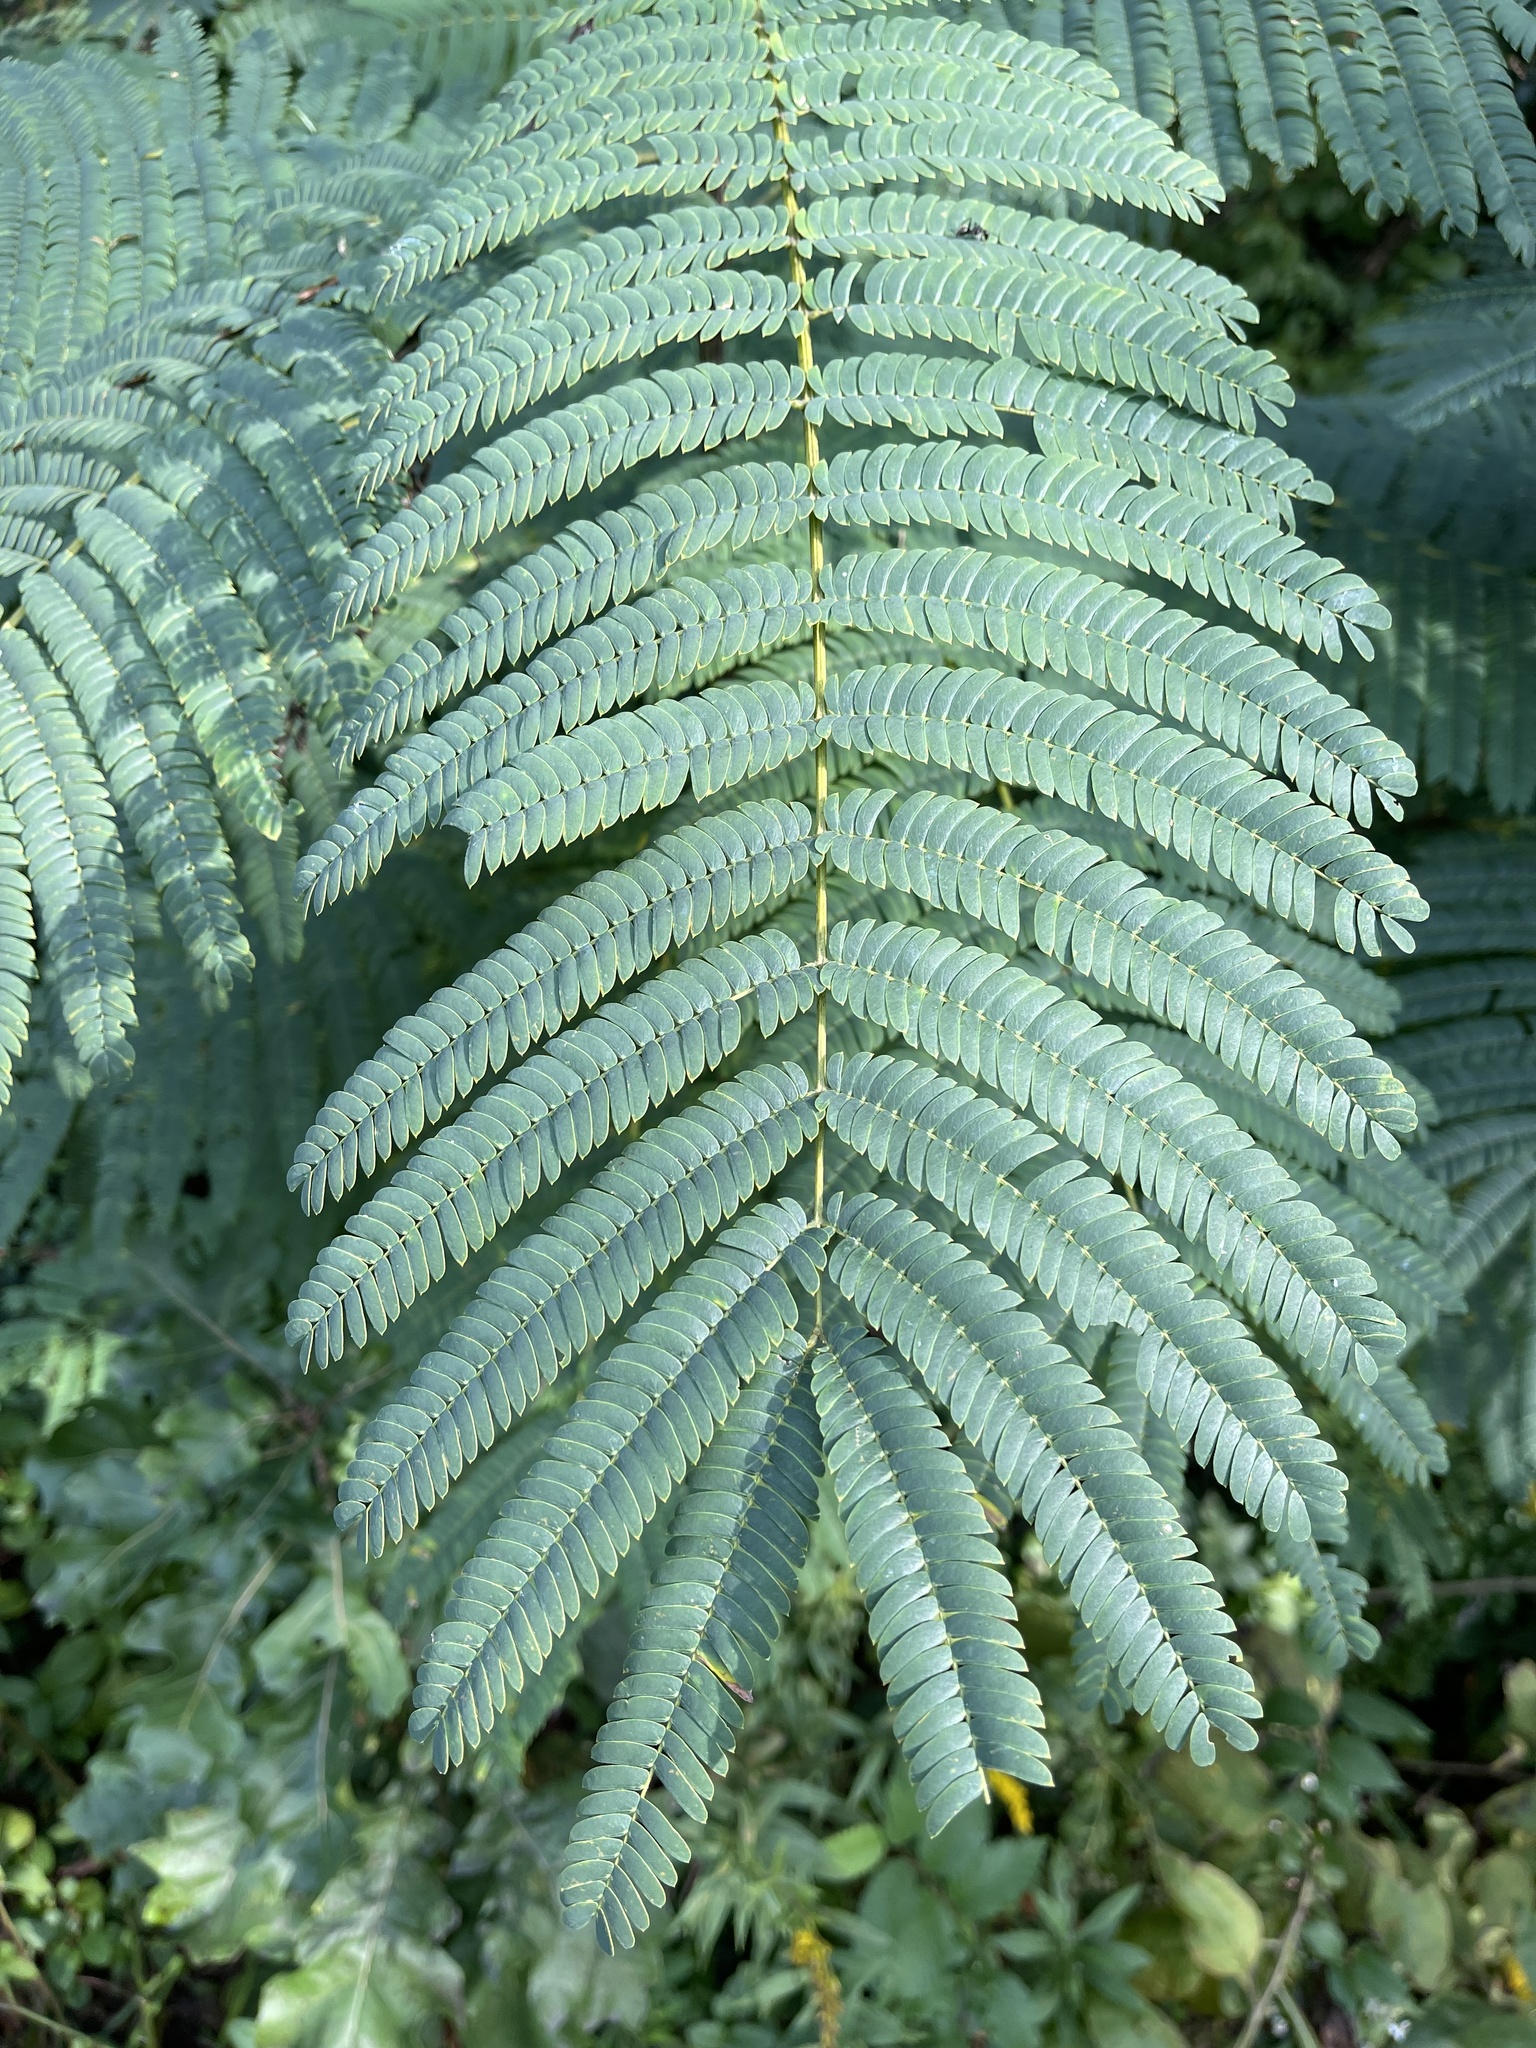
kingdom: Plantae
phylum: Tracheophyta
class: Magnoliopsida
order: Fabales
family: Fabaceae
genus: Albizia
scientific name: Albizia julibrissin
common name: Silktree
